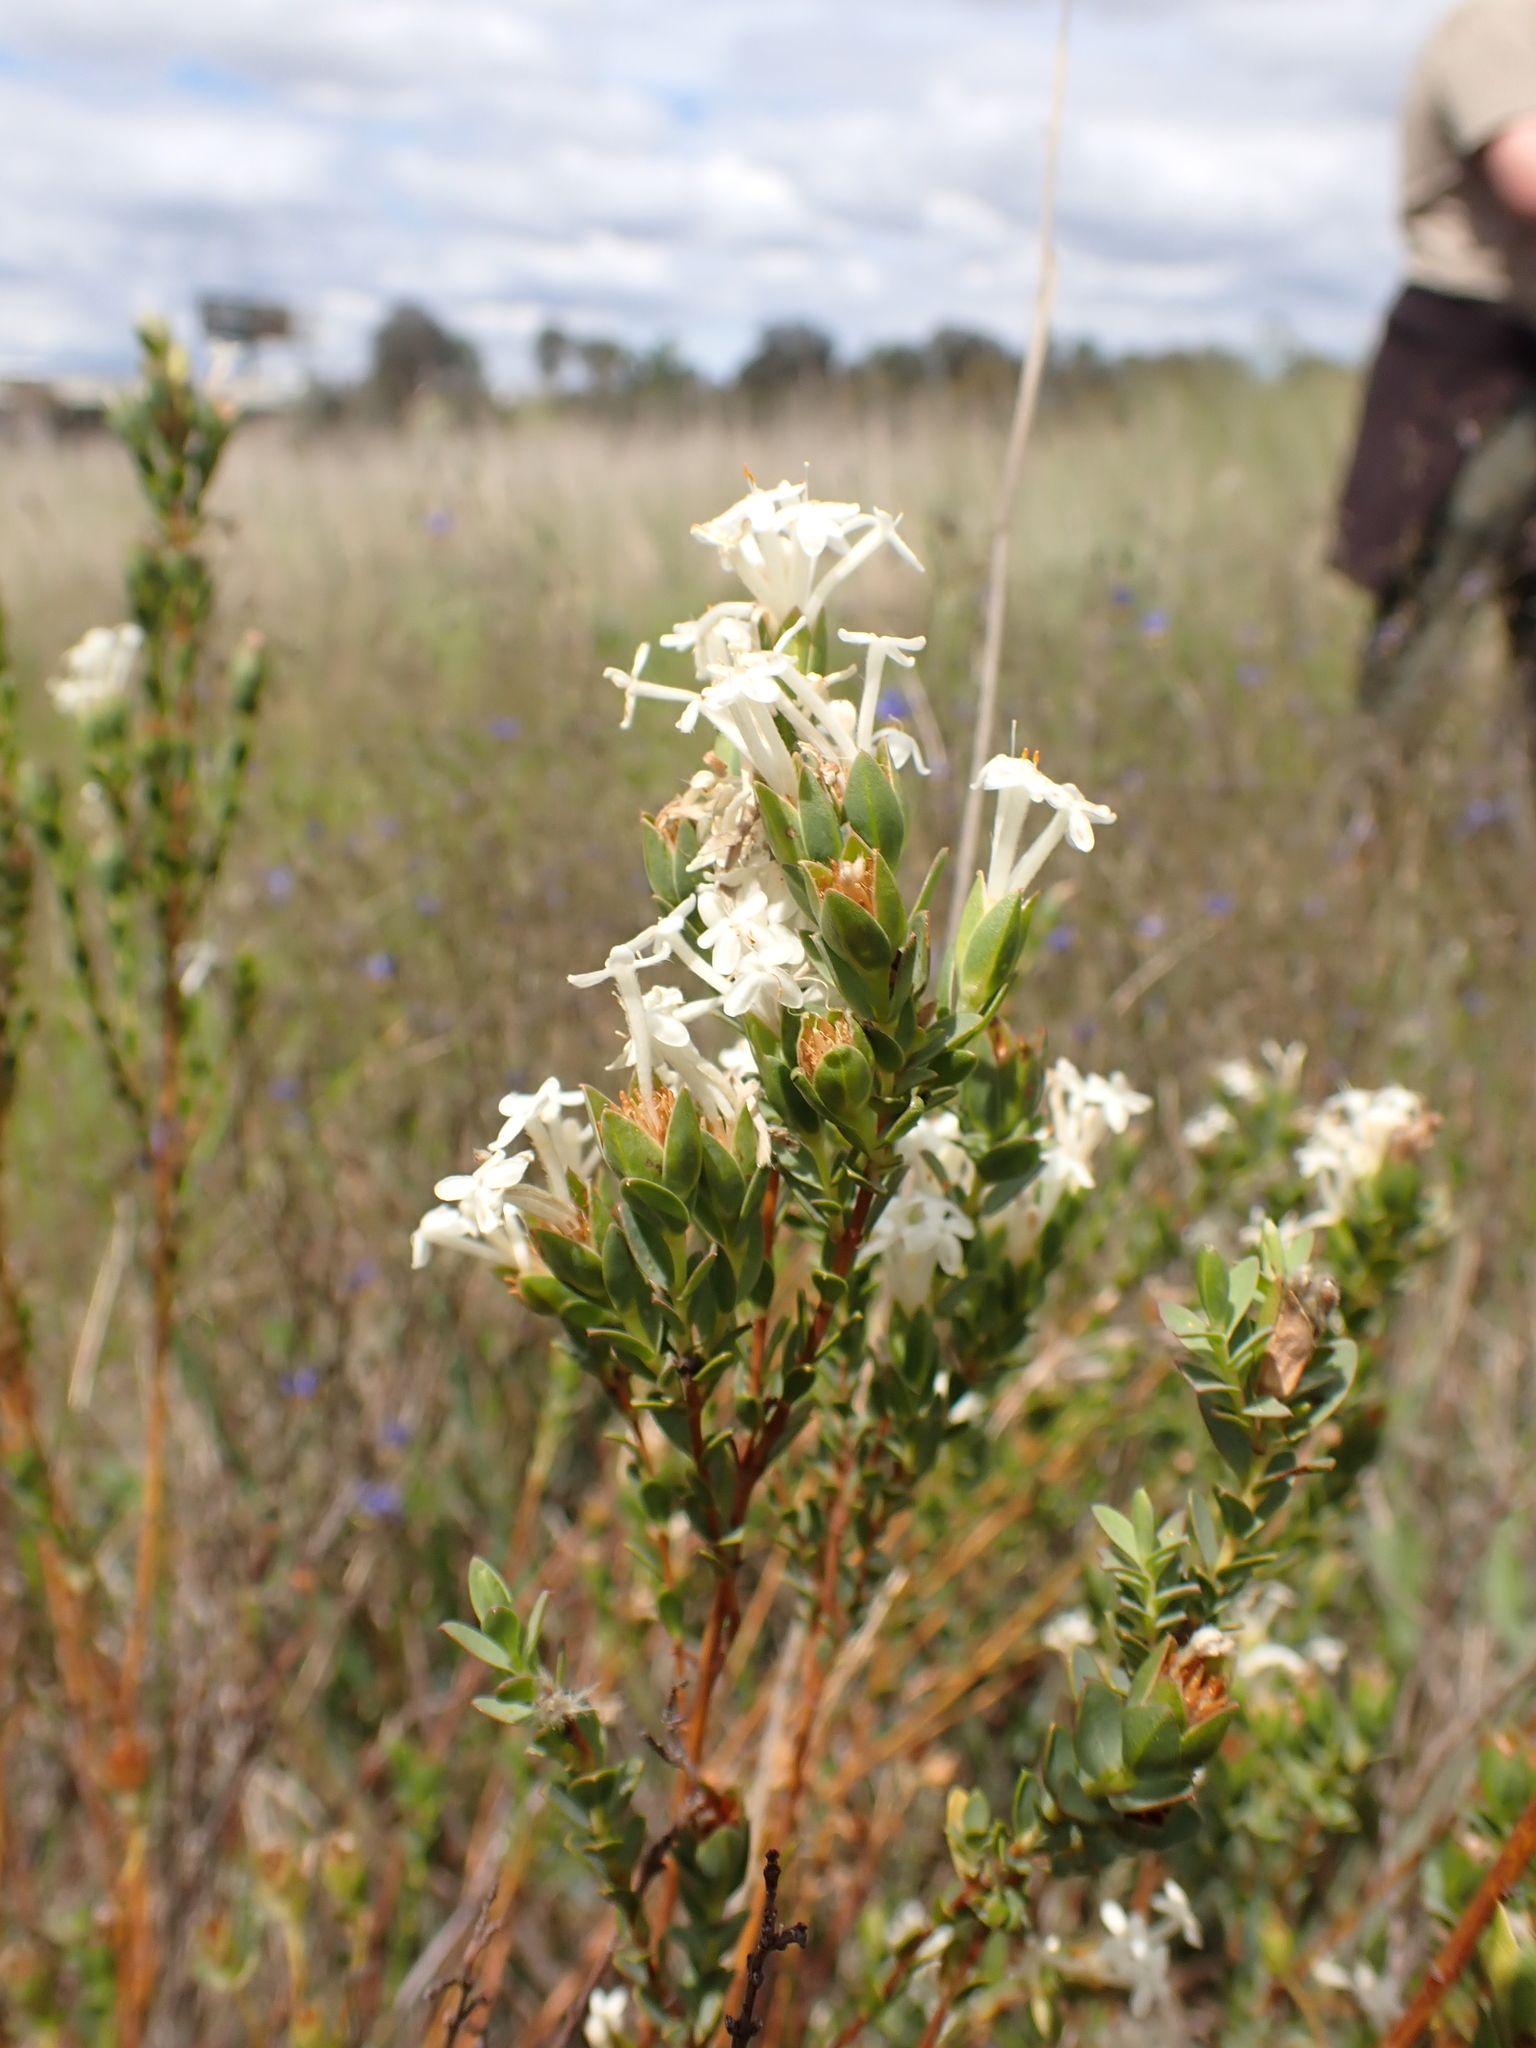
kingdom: Plantae
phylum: Tracheophyta
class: Magnoliopsida
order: Malvales
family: Thymelaeaceae
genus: Pimelea
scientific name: Pimelea glauca
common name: Smooth riceflower
